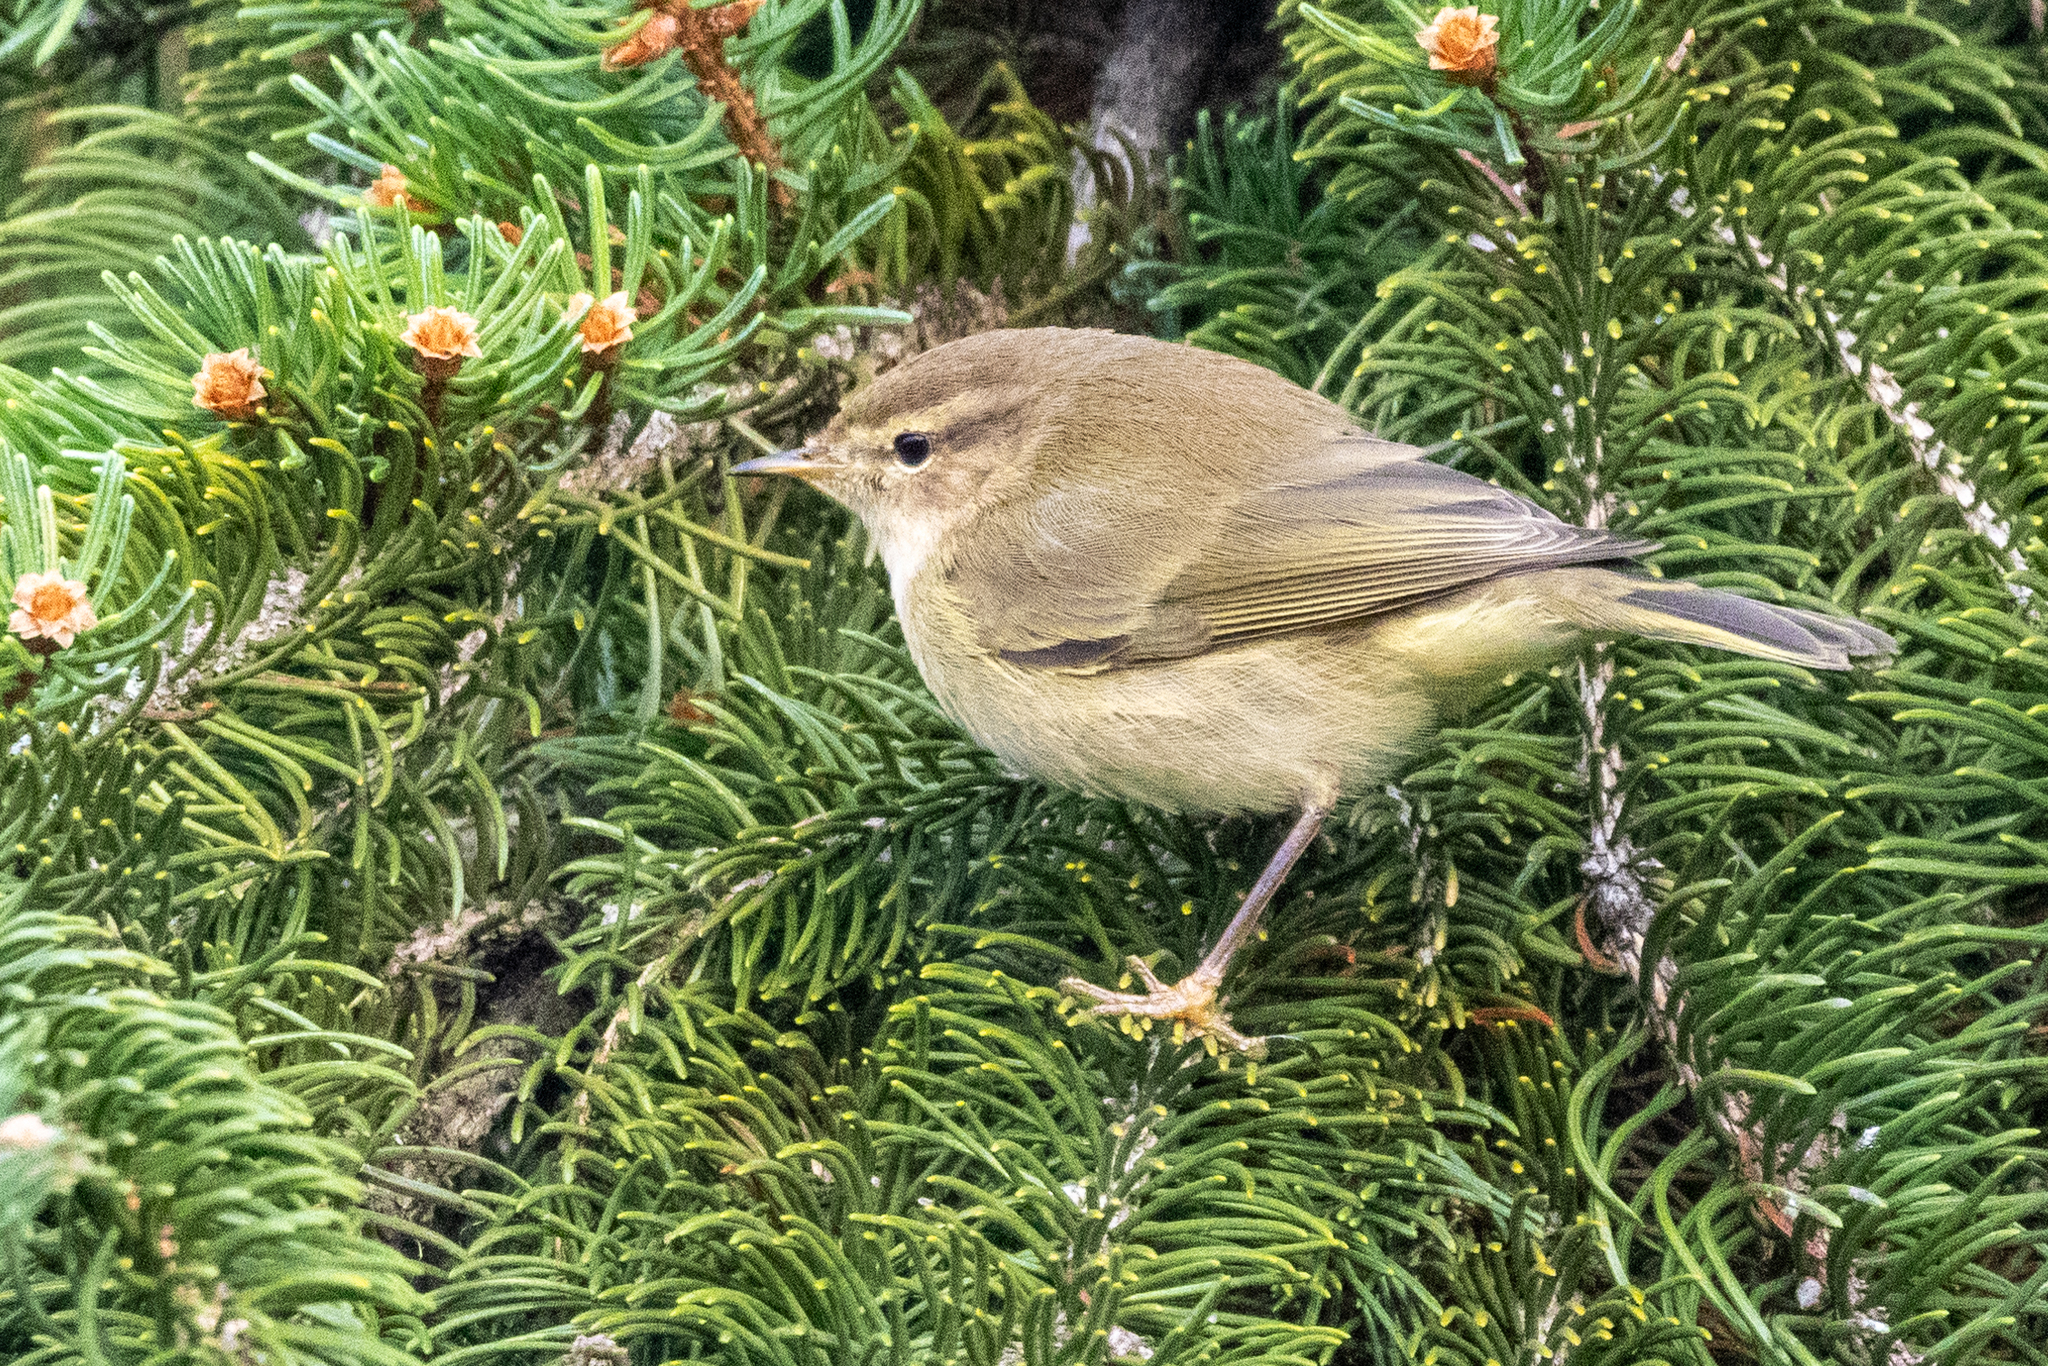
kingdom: Animalia
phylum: Chordata
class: Aves
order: Passeriformes
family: Phylloscopidae
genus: Phylloscopus
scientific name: Phylloscopus collybita
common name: Common chiffchaff
